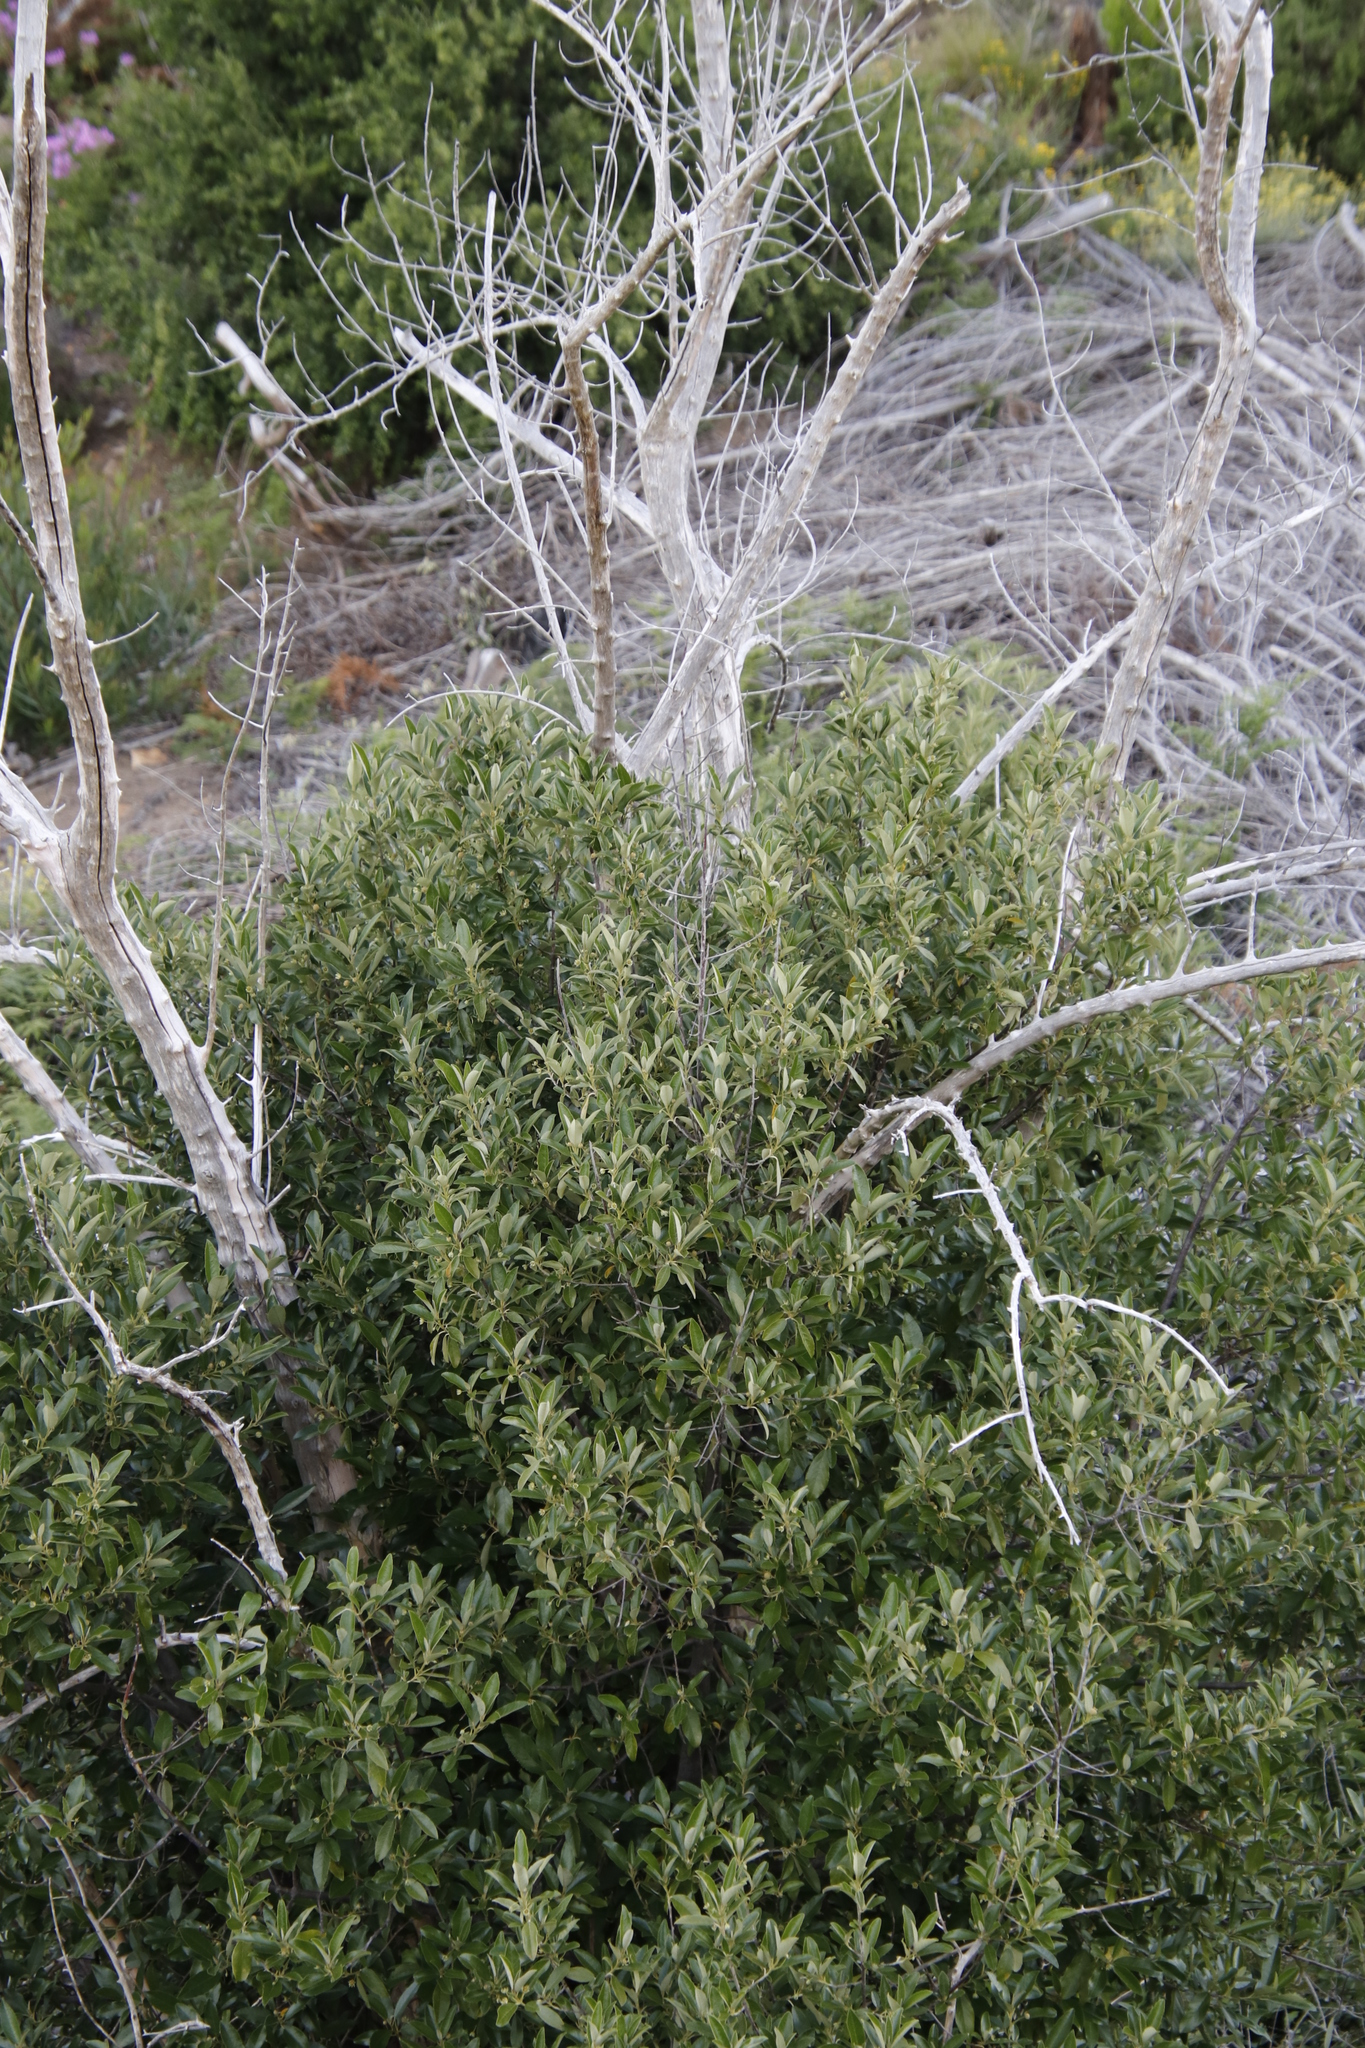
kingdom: Plantae
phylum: Tracheophyta
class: Magnoliopsida
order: Malpighiales
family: Achariaceae
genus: Kiggelaria
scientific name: Kiggelaria africana
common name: Wild peach
